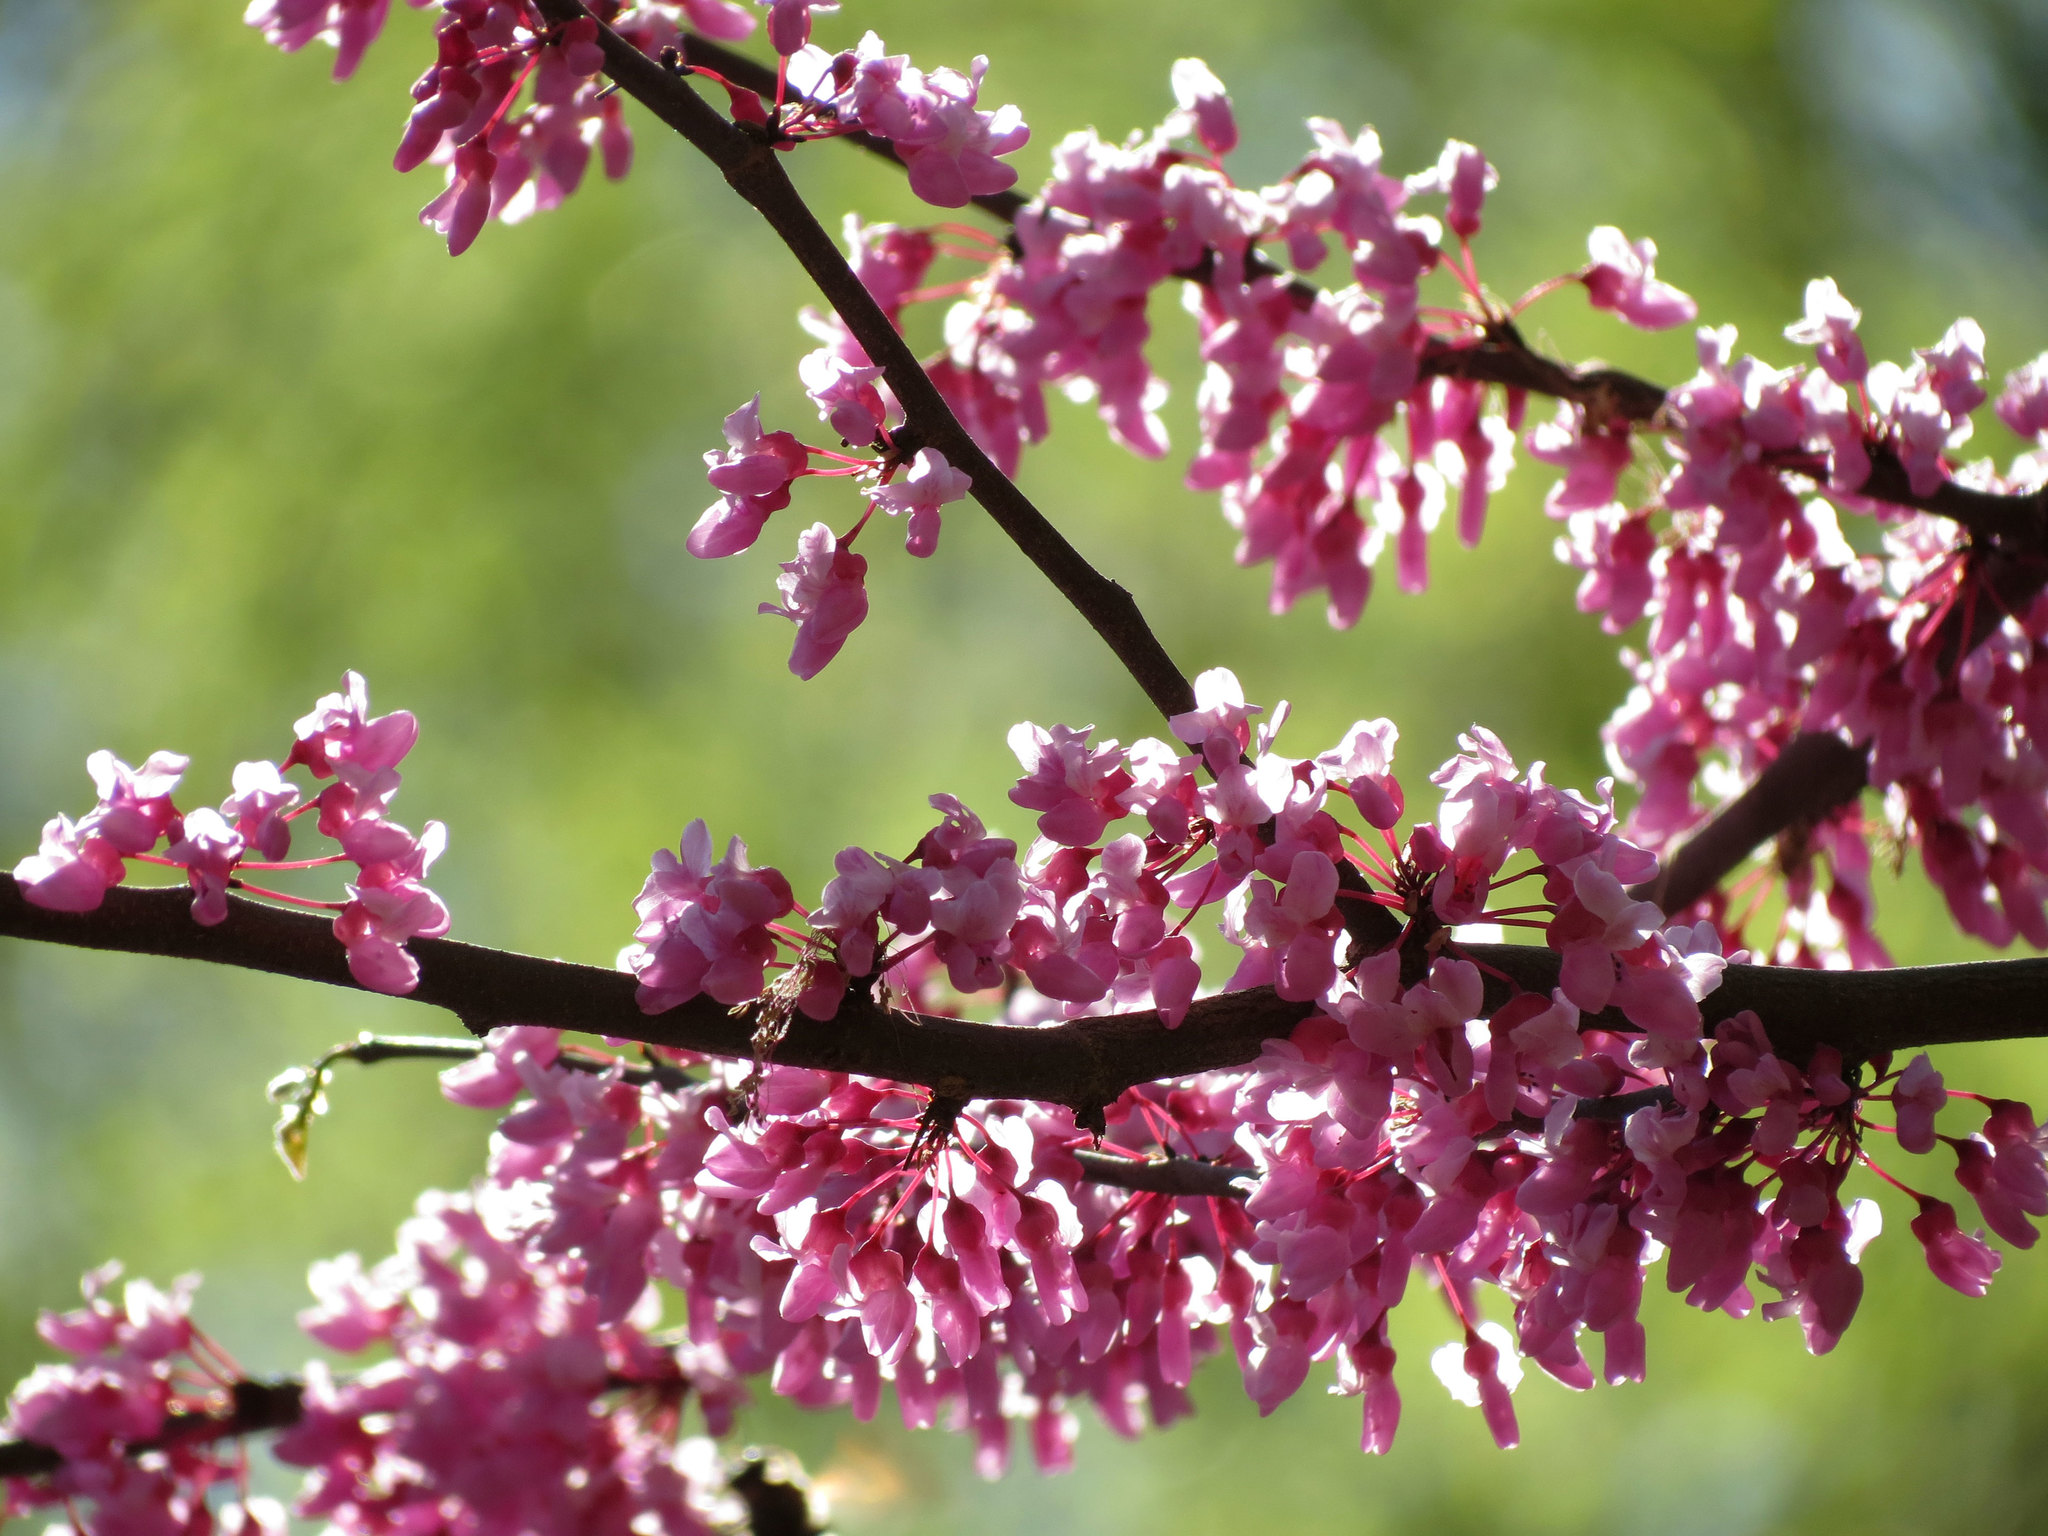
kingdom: Plantae
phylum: Tracheophyta
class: Magnoliopsida
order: Fabales
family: Fabaceae
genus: Cercis
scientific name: Cercis canadensis
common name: Eastern redbud
